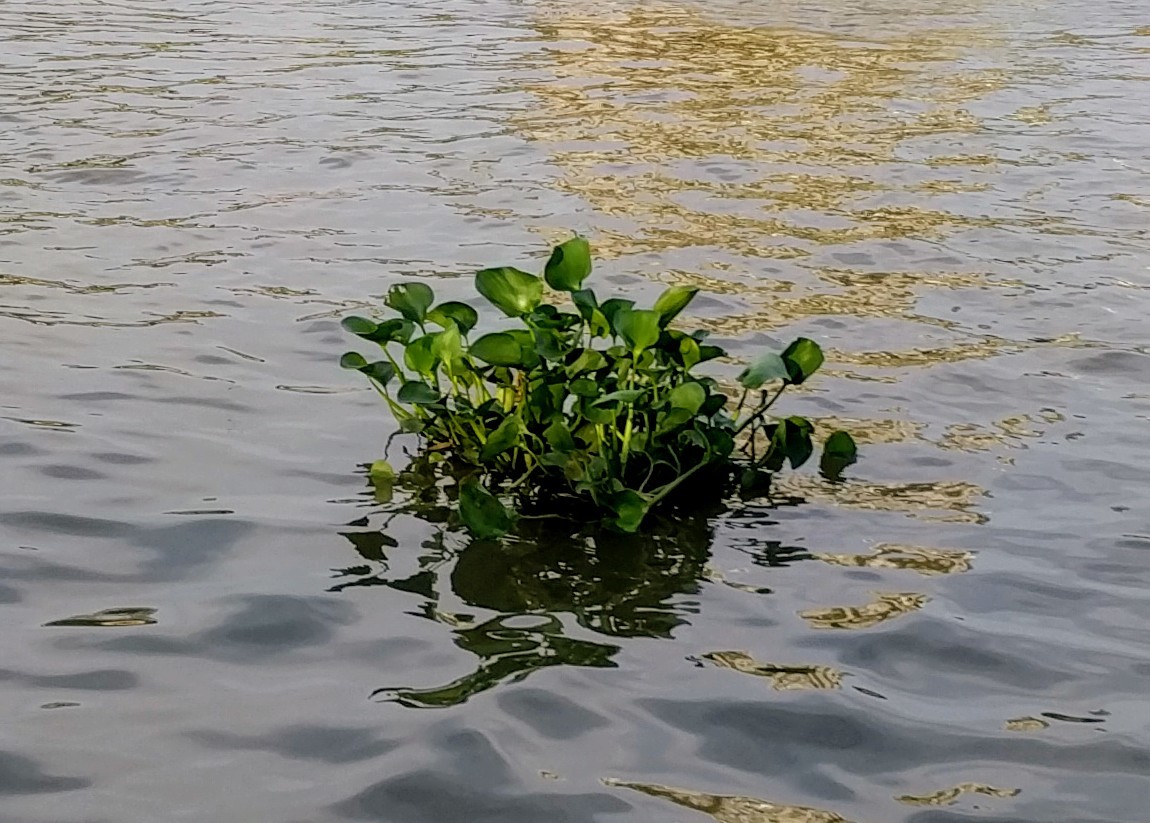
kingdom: Plantae
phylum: Tracheophyta
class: Liliopsida
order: Commelinales
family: Pontederiaceae
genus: Pontederia
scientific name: Pontederia crassipes
